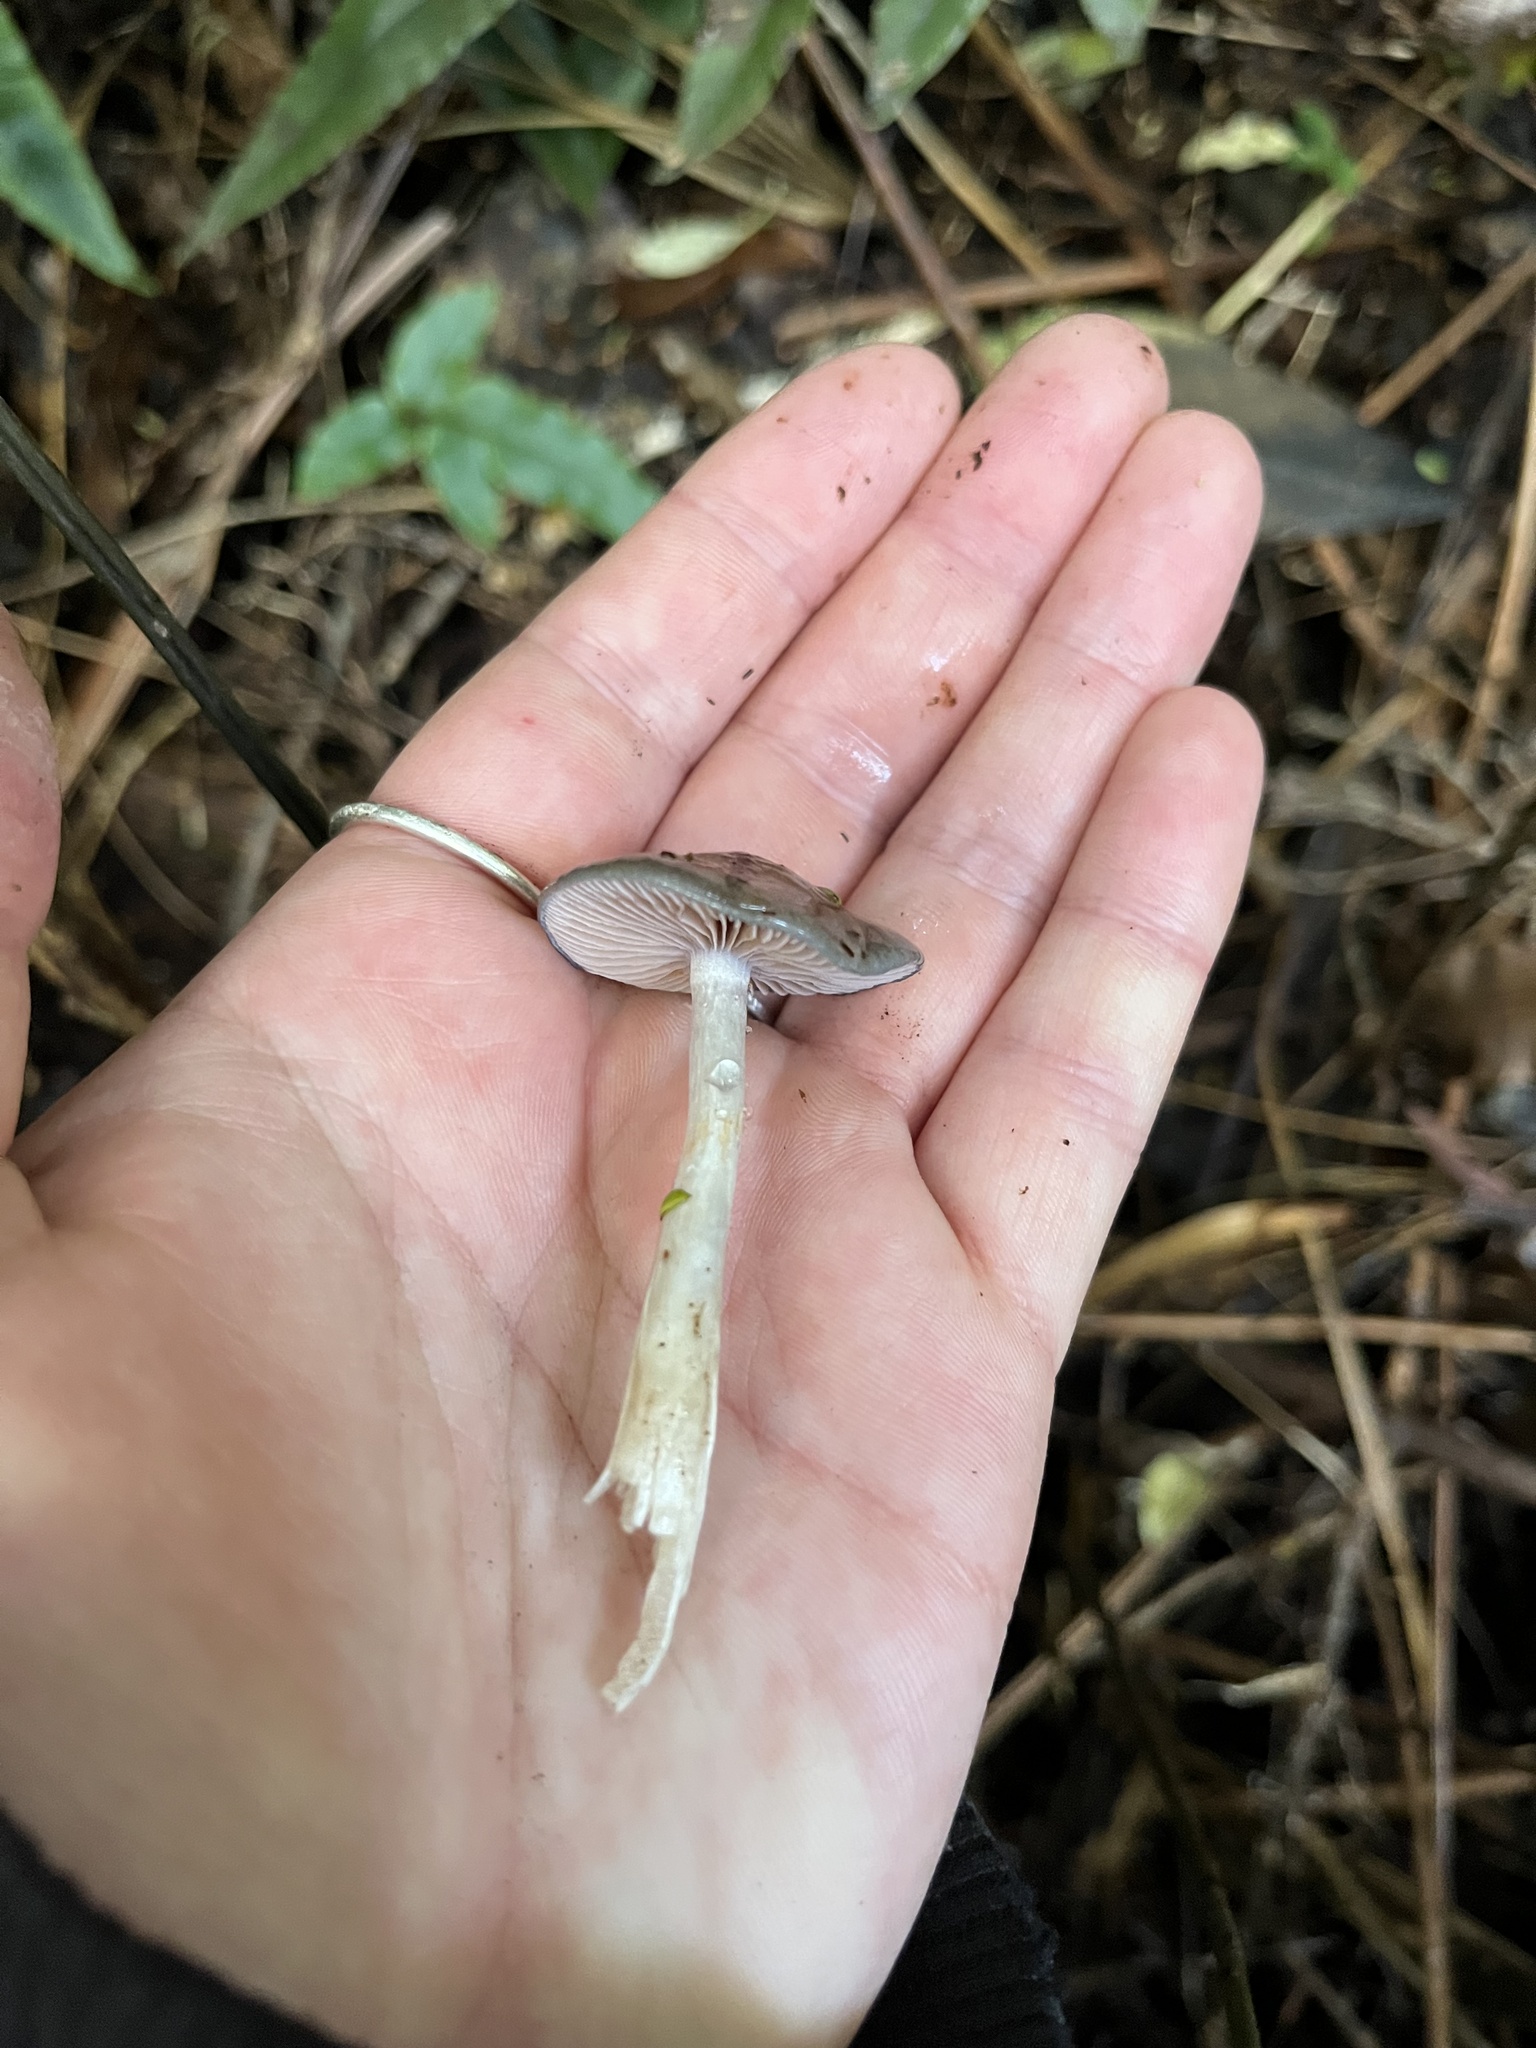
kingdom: Fungi
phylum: Basidiomycota
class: Agaricomycetes
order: Agaricales
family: Cortinariaceae
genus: Cortinarius
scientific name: Cortinarius rotundisporus
